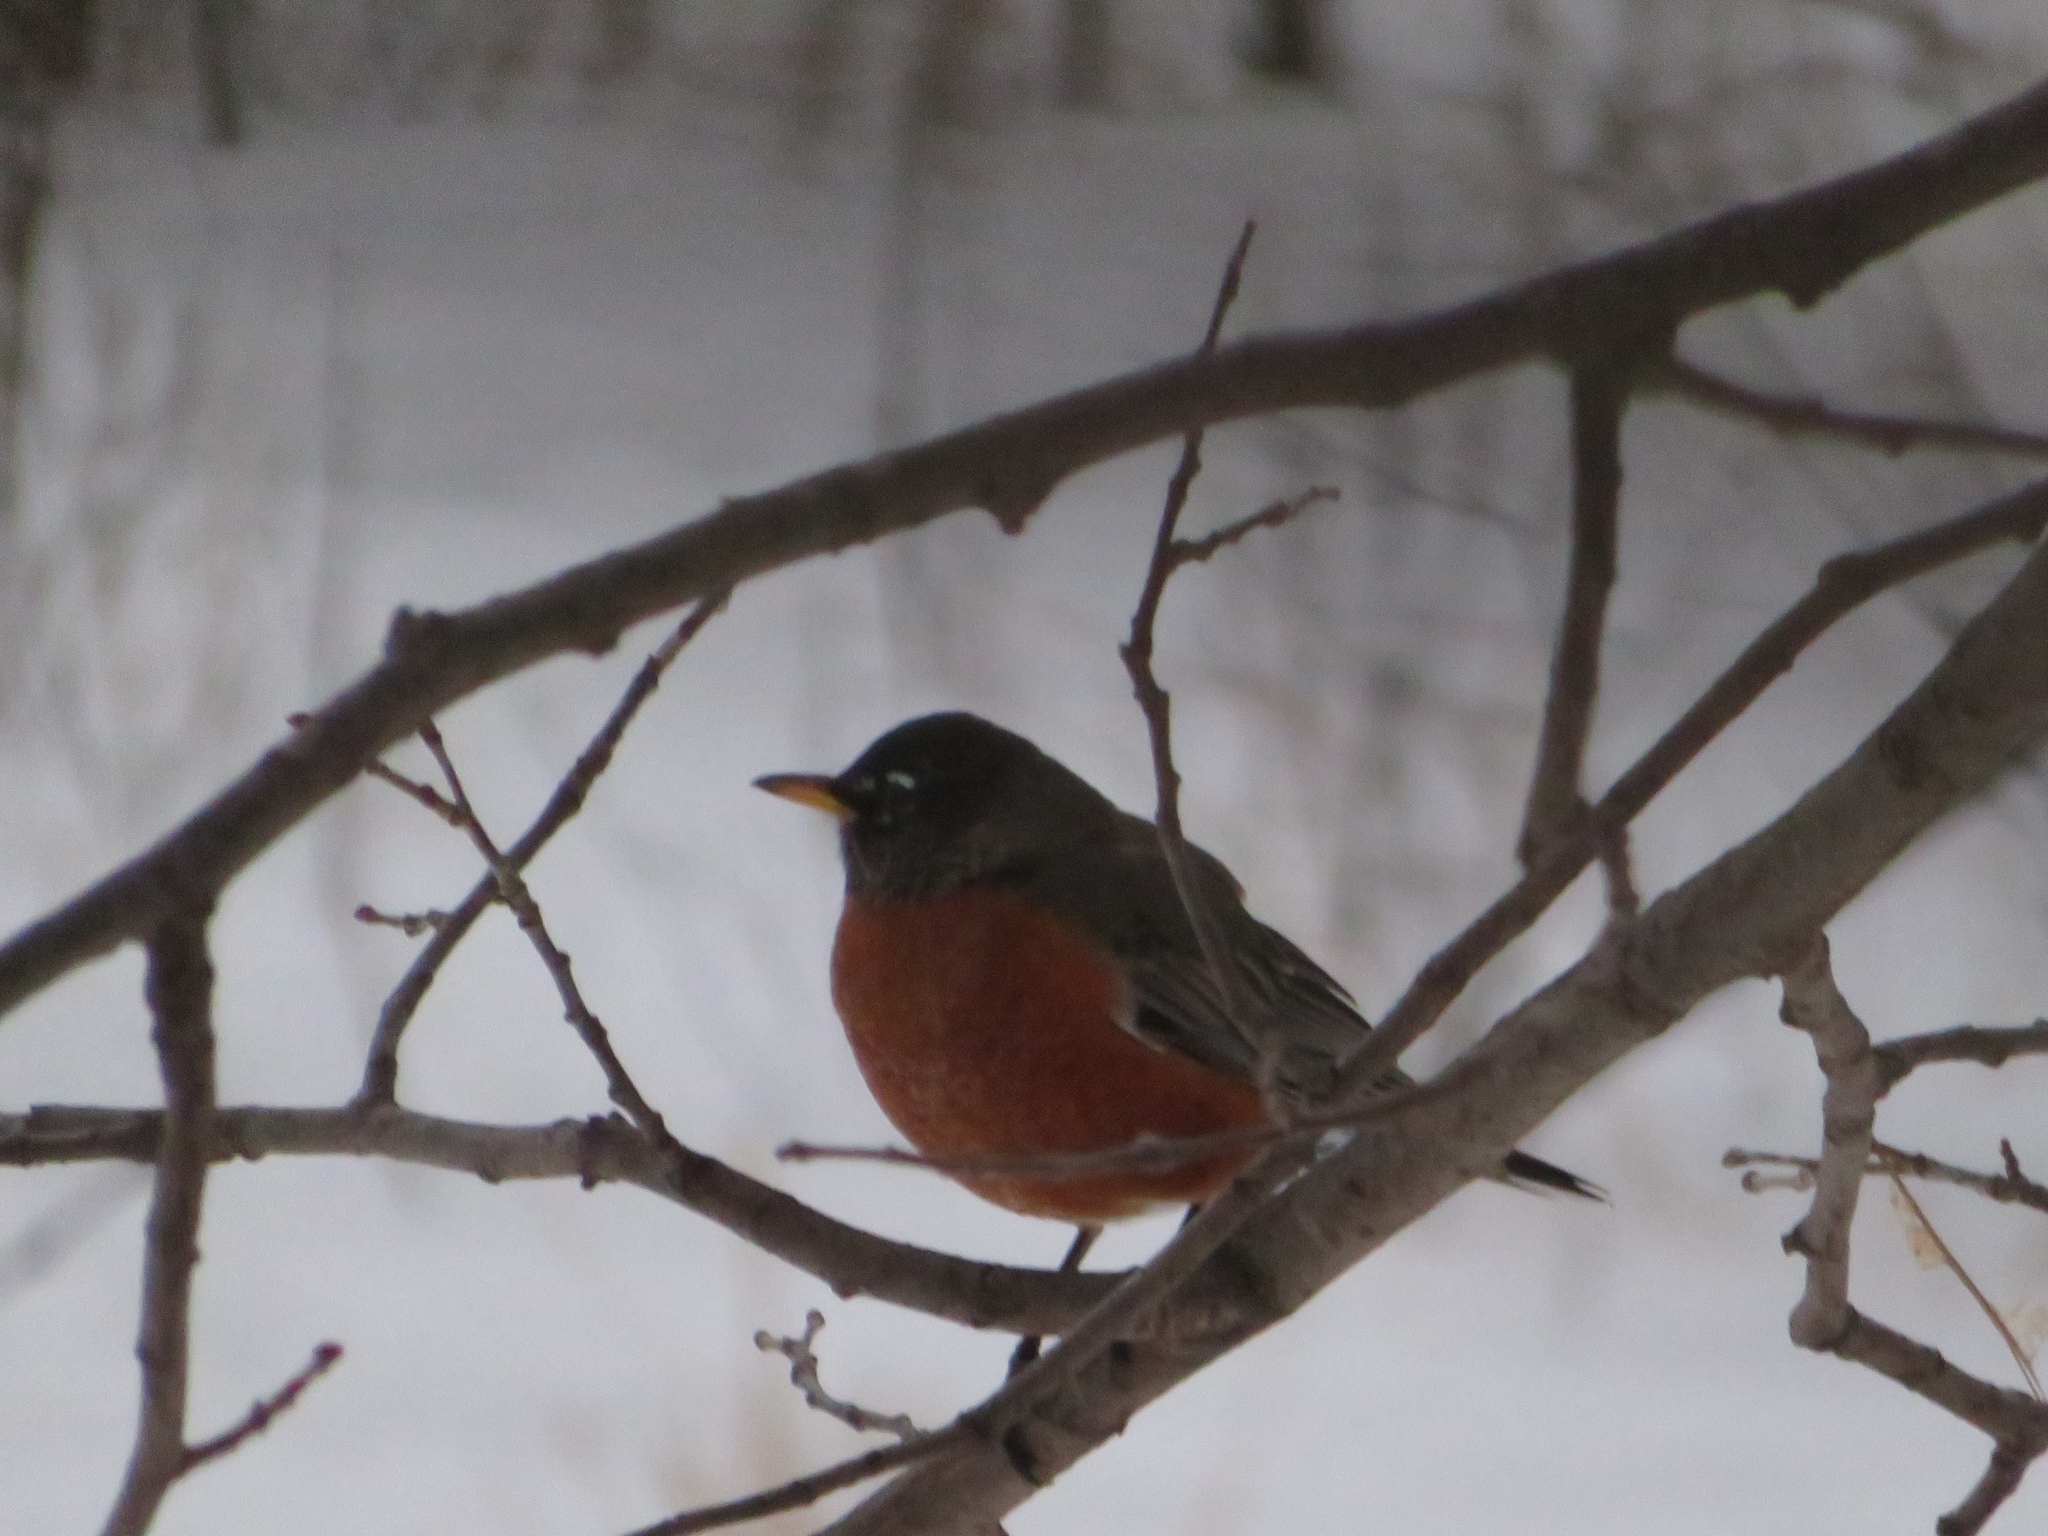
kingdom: Animalia
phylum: Chordata
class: Aves
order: Passeriformes
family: Turdidae
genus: Turdus
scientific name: Turdus migratorius
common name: American robin
